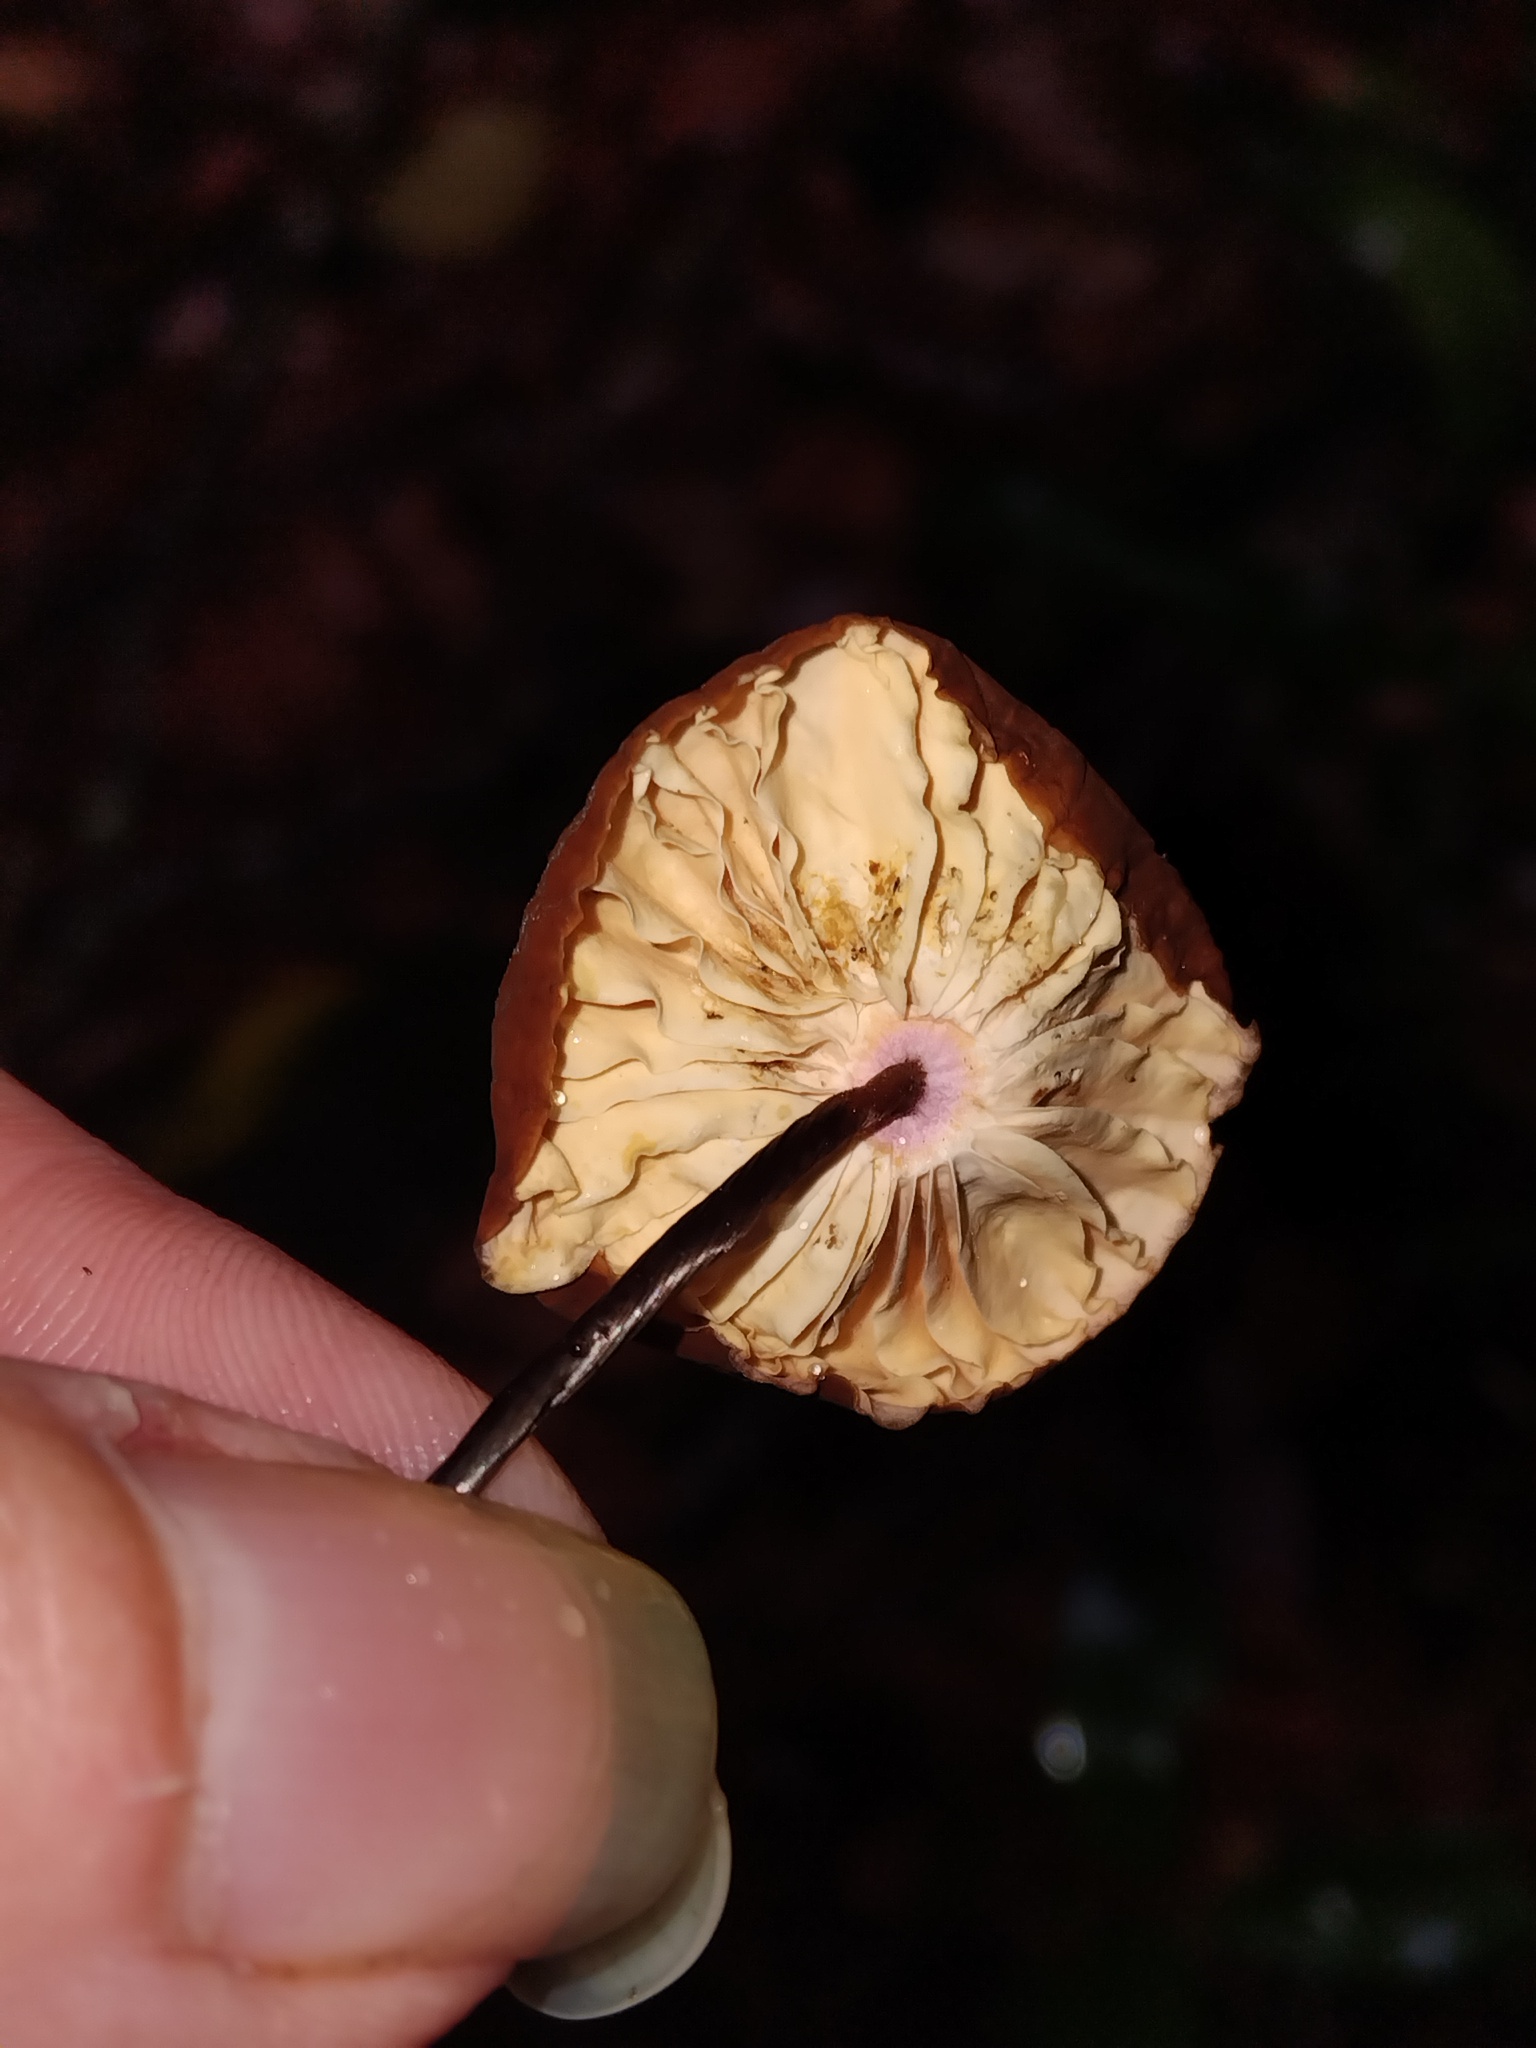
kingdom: Fungi
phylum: Basidiomycota
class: Agaricomycetes
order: Agaricales
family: Marasmiaceae
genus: Marasmius
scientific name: Marasmius brunneolorobustus
